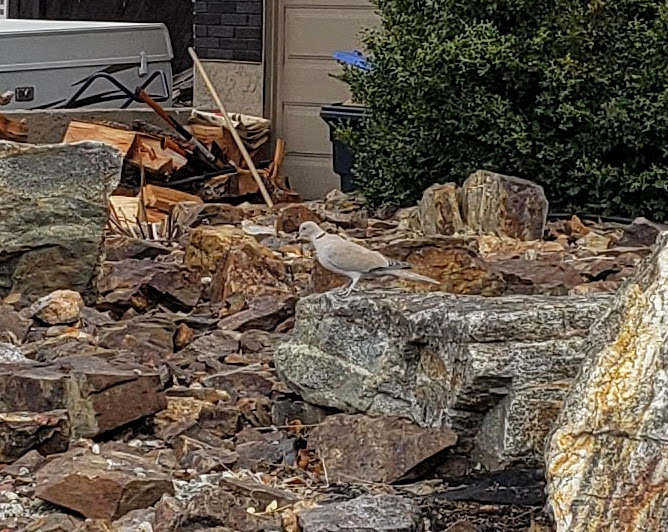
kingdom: Animalia
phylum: Chordata
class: Aves
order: Columbiformes
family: Columbidae
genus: Streptopelia
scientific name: Streptopelia decaocto
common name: Eurasian collared dove
